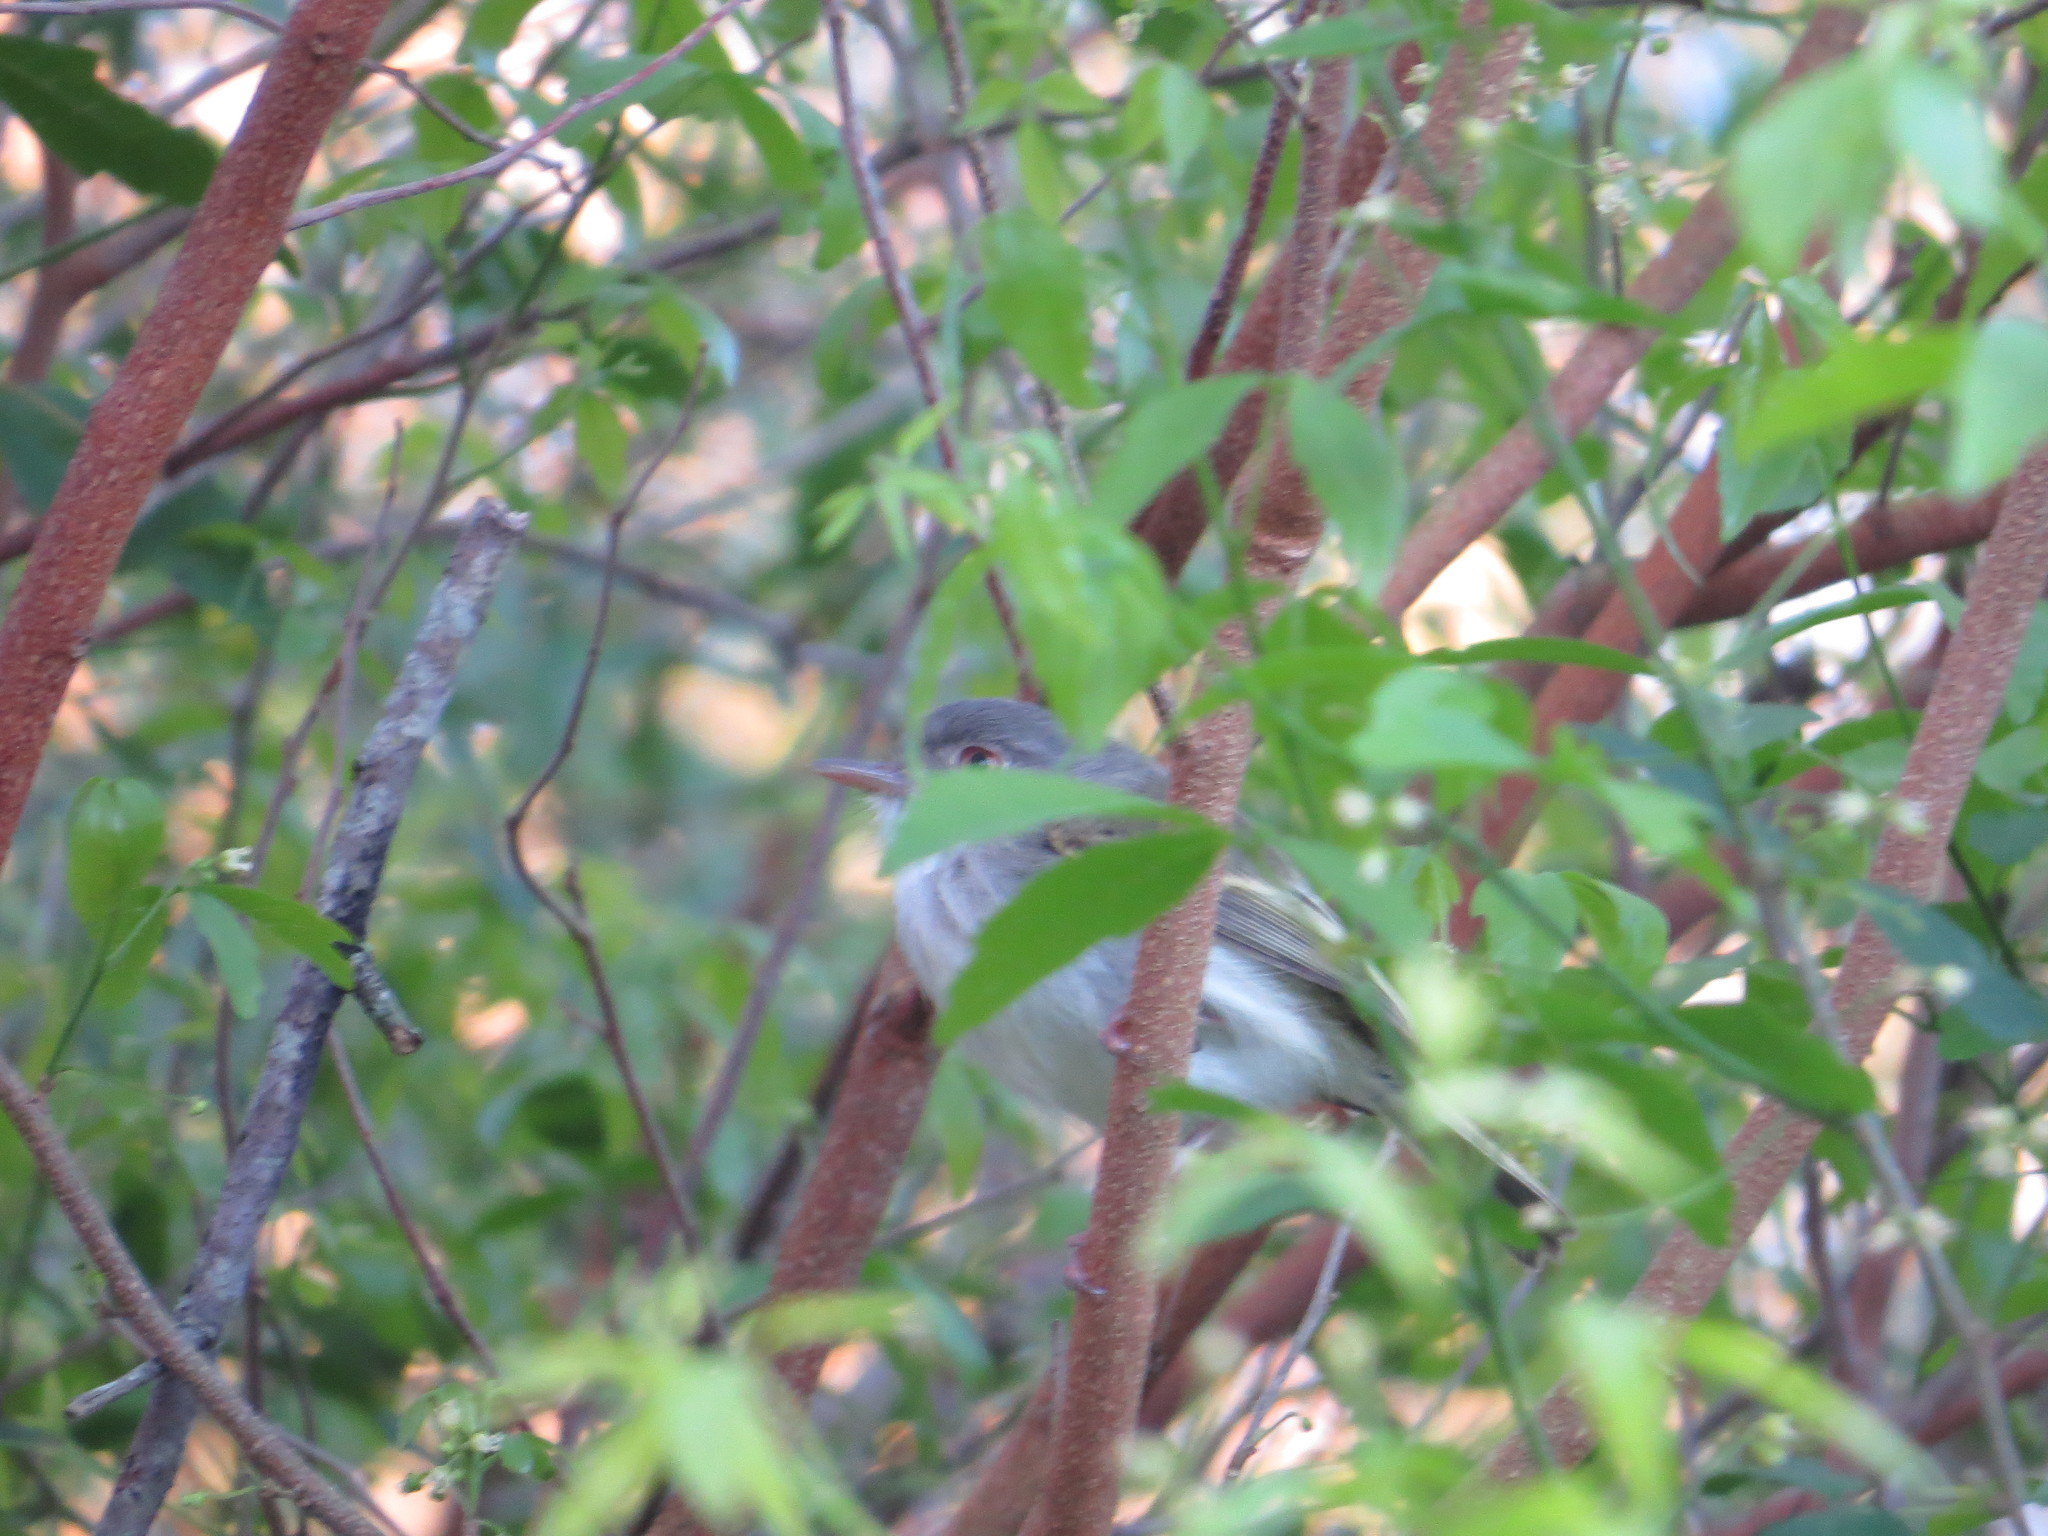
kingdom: Animalia
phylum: Chordata
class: Aves
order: Passeriformes
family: Tyrannidae
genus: Hemitriccus
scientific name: Hemitriccus margaritaceiventer
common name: Pearly-vented tody-tyrant
